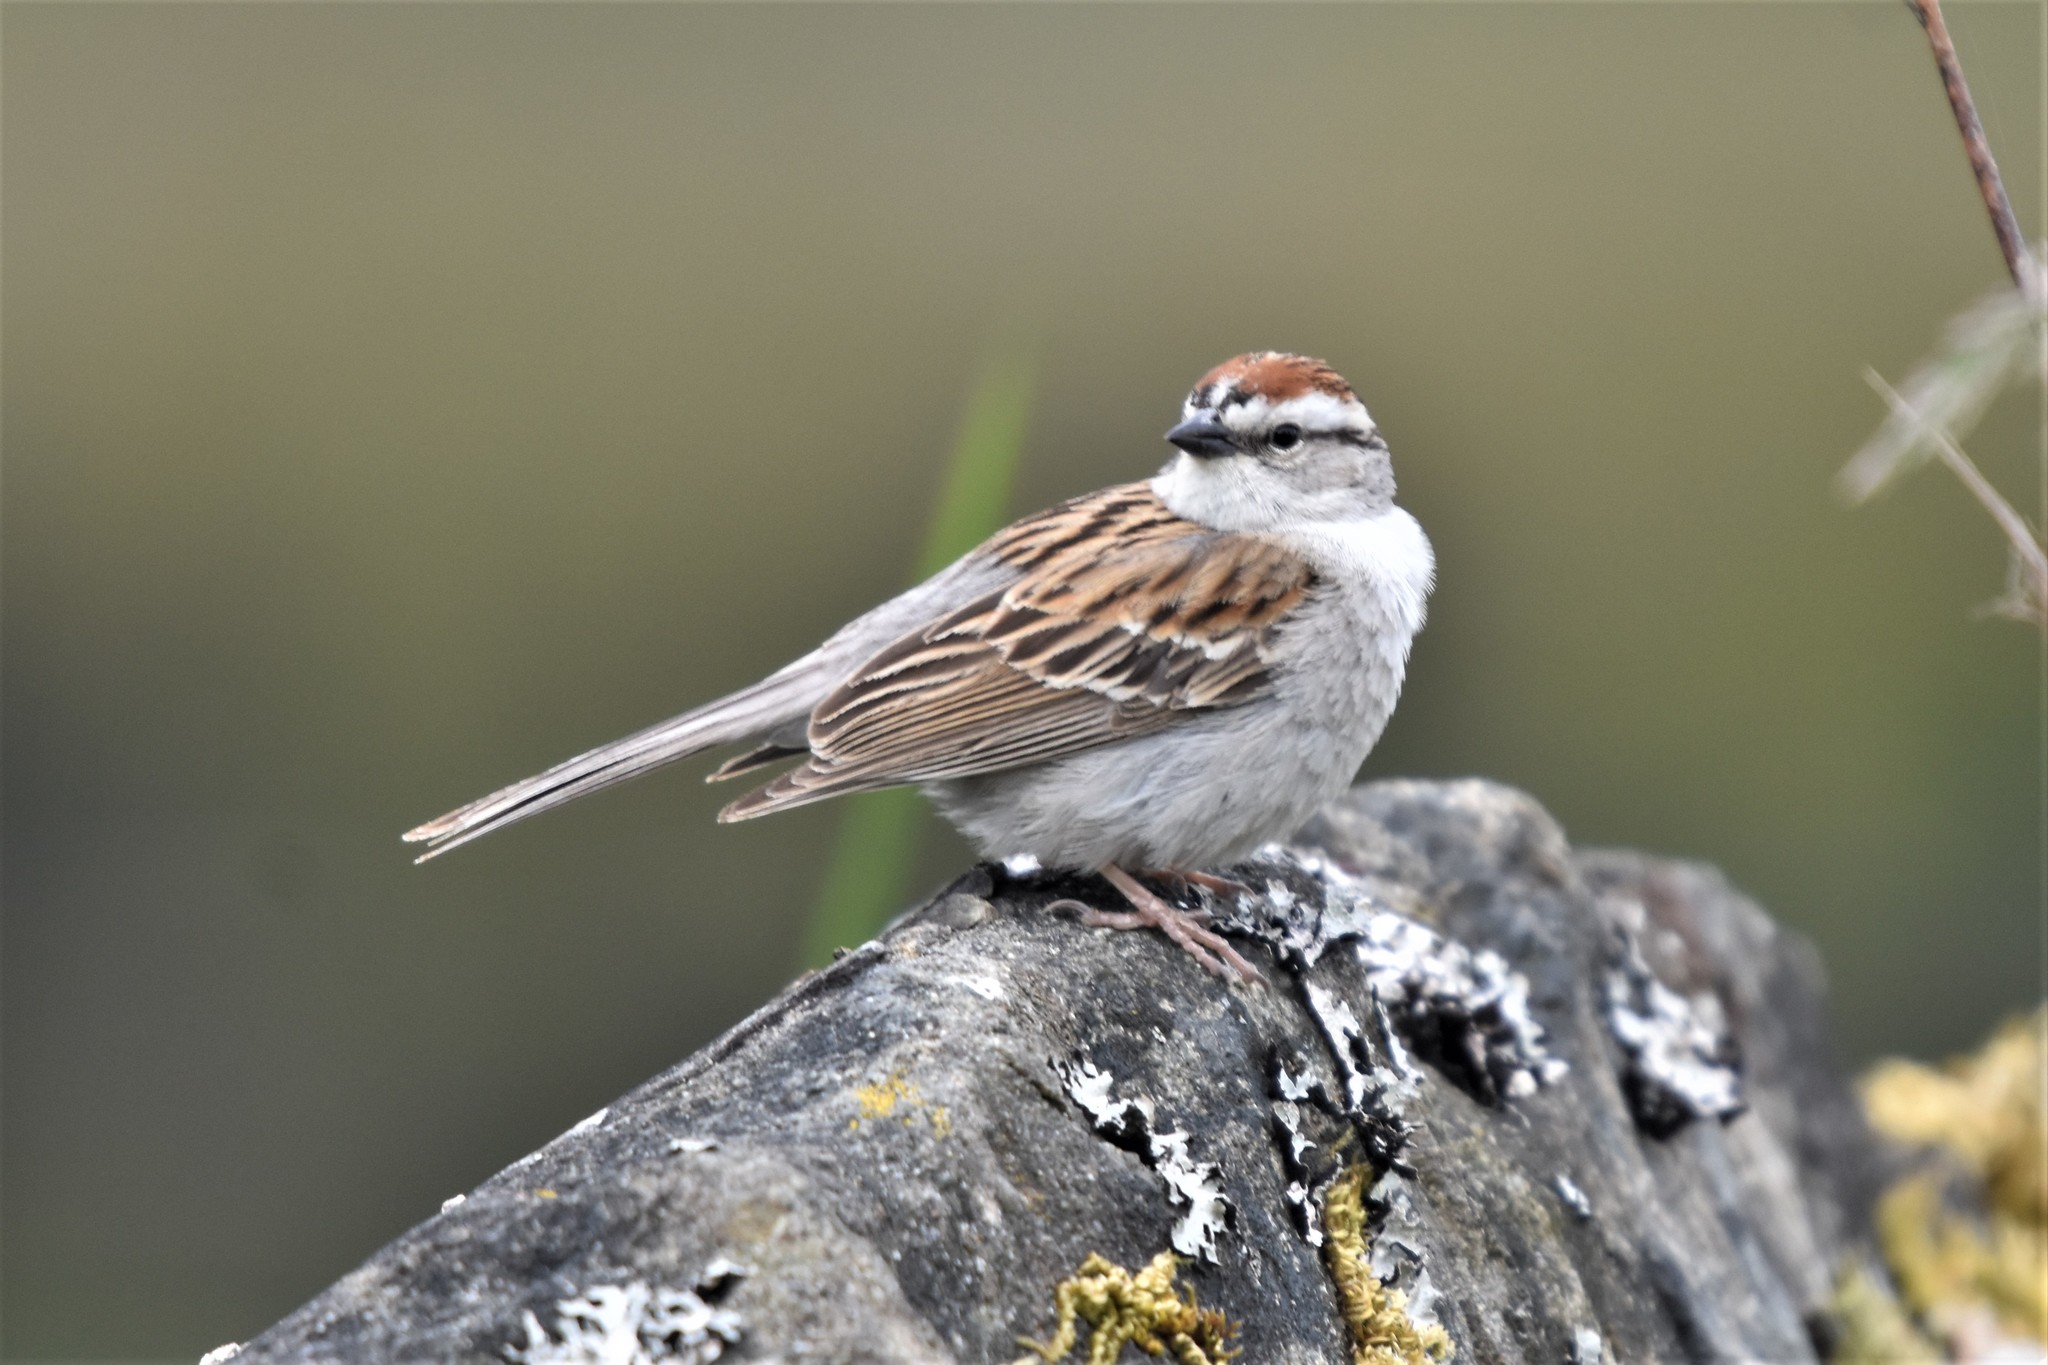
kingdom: Animalia
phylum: Chordata
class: Aves
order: Passeriformes
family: Passerellidae
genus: Spizella
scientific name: Spizella passerina
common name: Chipping sparrow
